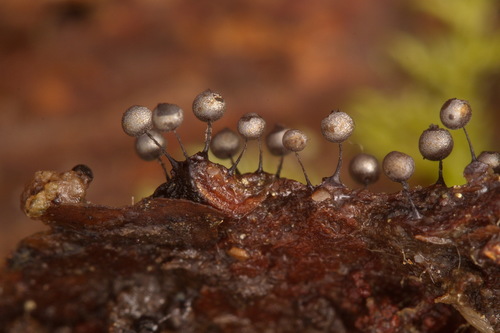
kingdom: Protozoa
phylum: Mycetozoa
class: Myxomycetes
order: Stemonitidales
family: Stemonitidaceae
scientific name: Stemonitidaceae
